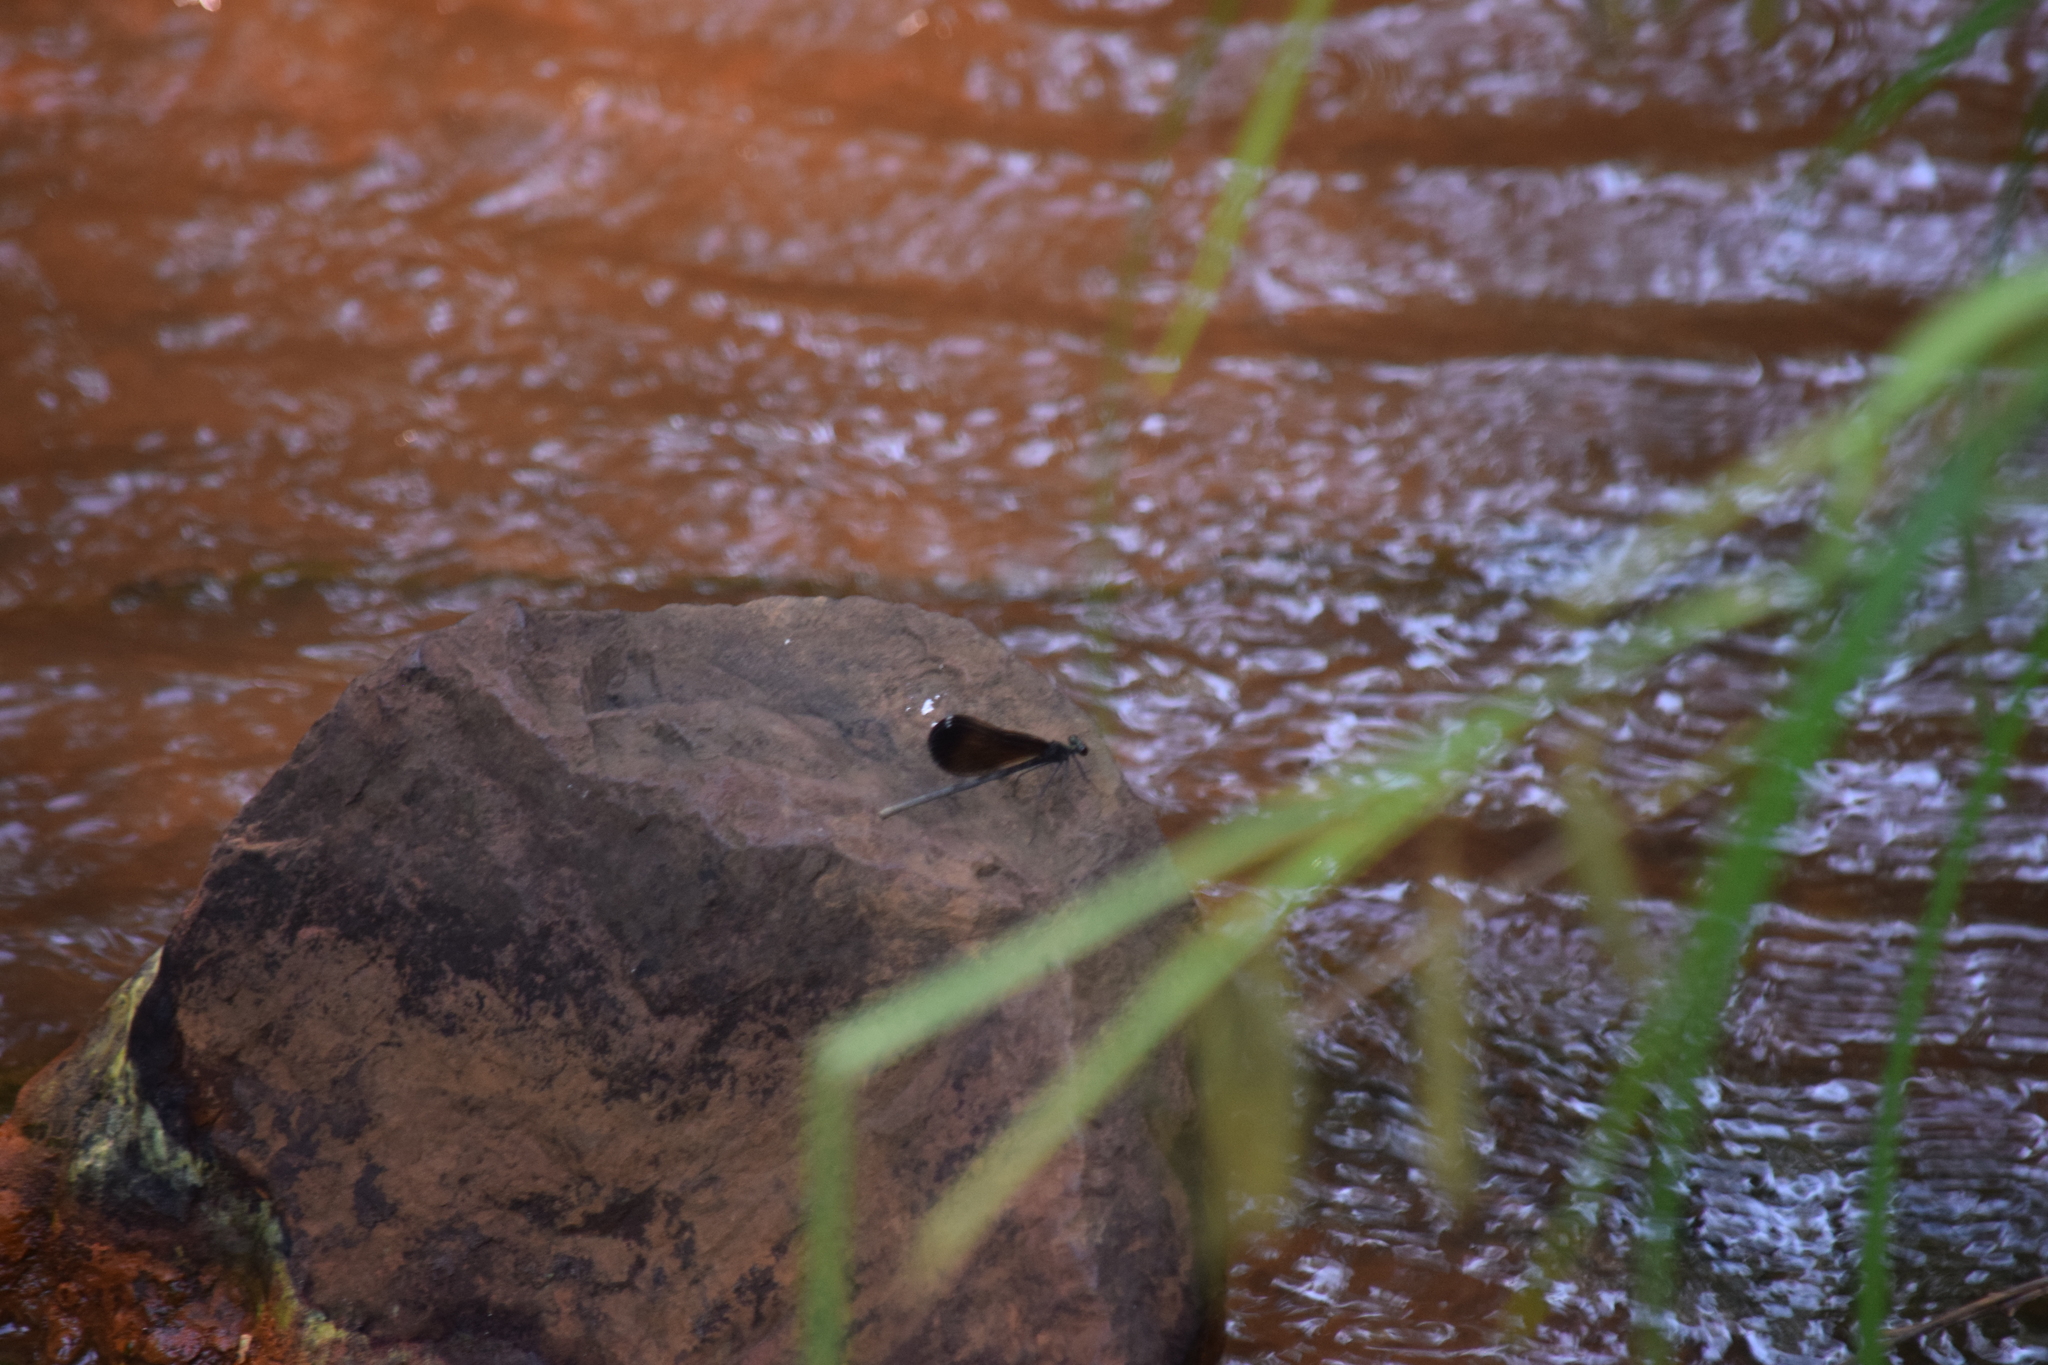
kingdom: Animalia
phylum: Arthropoda
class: Insecta
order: Odonata
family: Calopterygidae
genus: Calopteryx
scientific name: Calopteryx maculata
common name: Ebony jewelwing
